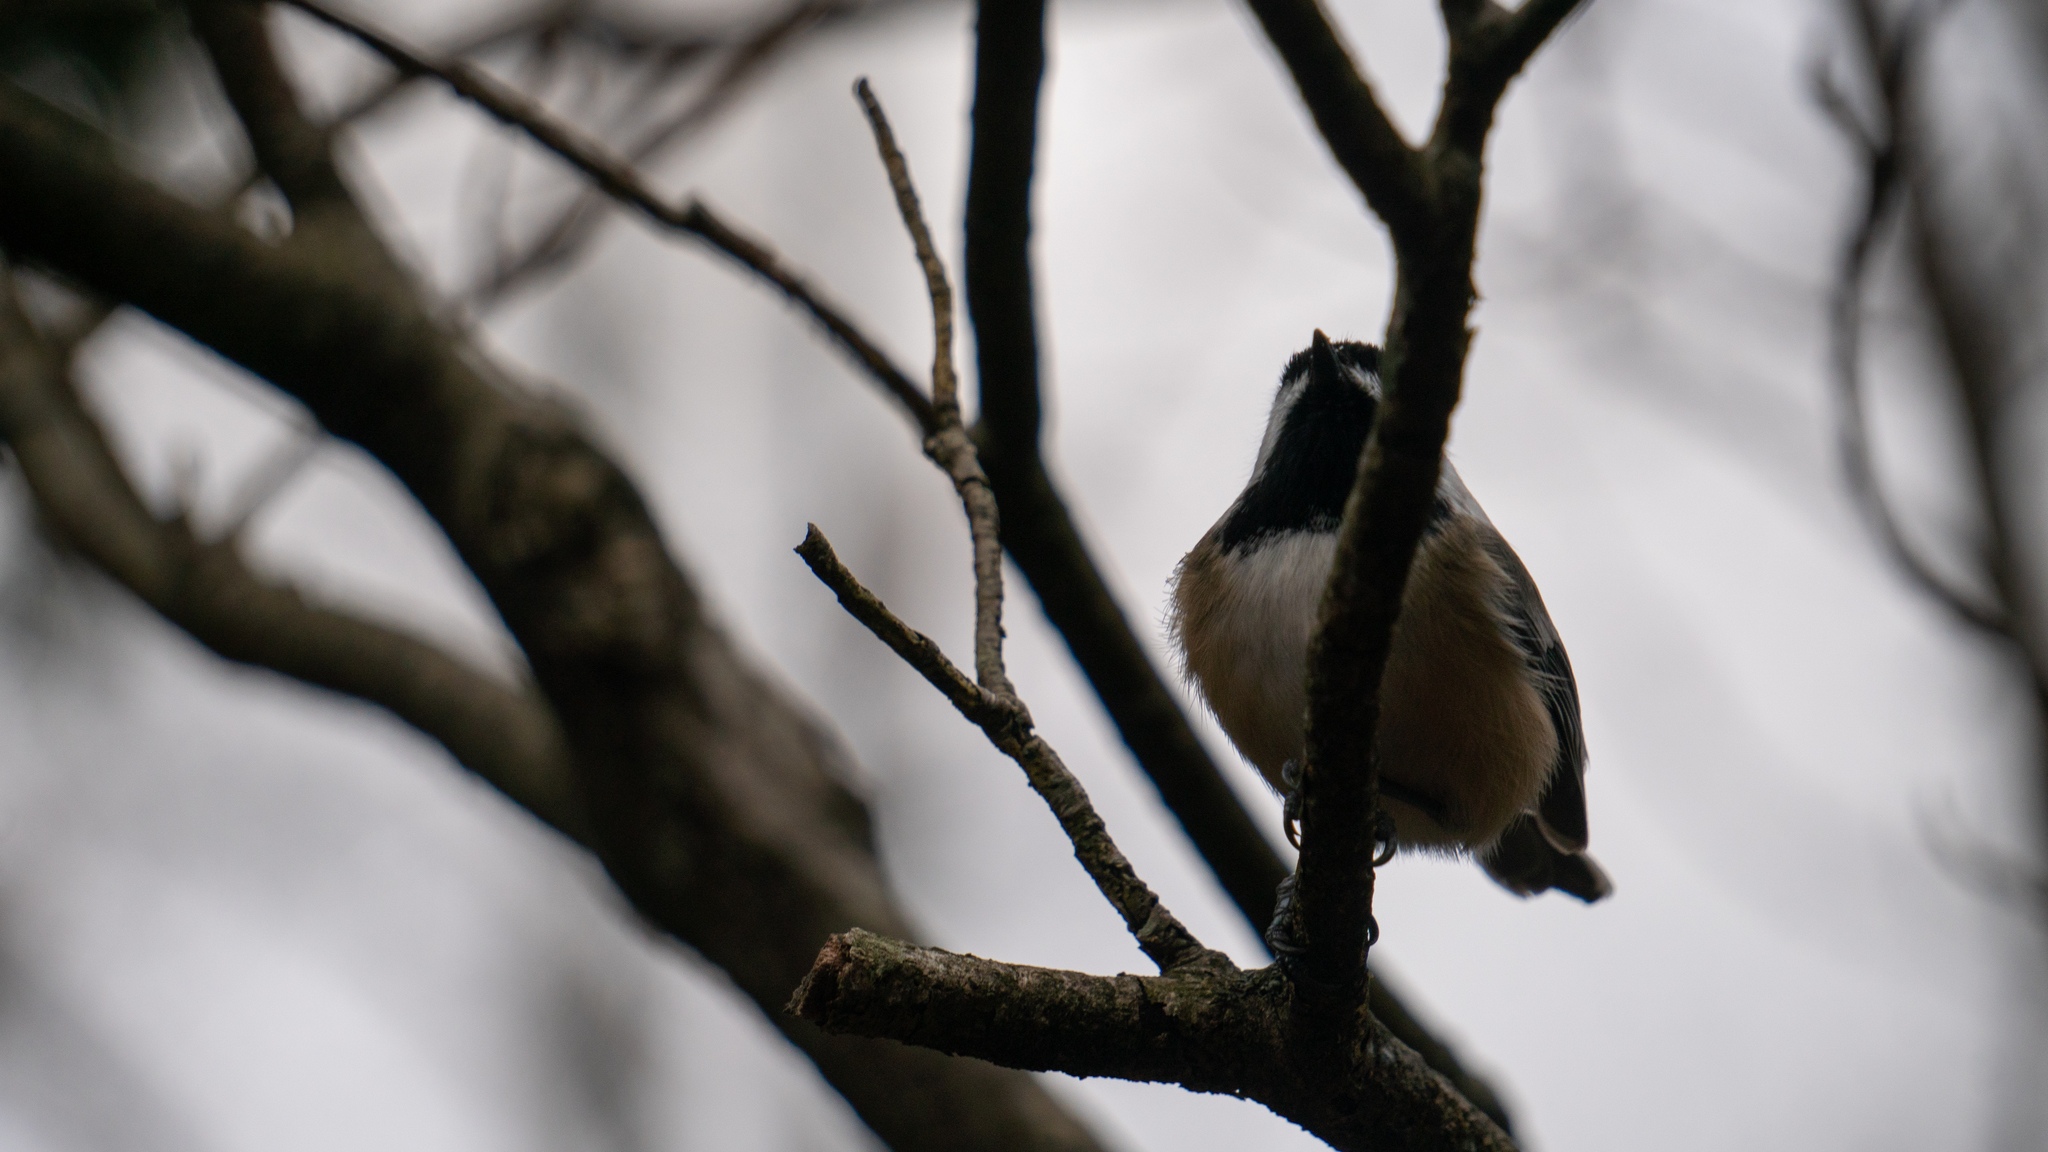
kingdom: Animalia
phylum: Chordata
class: Aves
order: Passeriformes
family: Paridae
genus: Poecile
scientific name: Poecile atricapillus
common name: Black-capped chickadee
